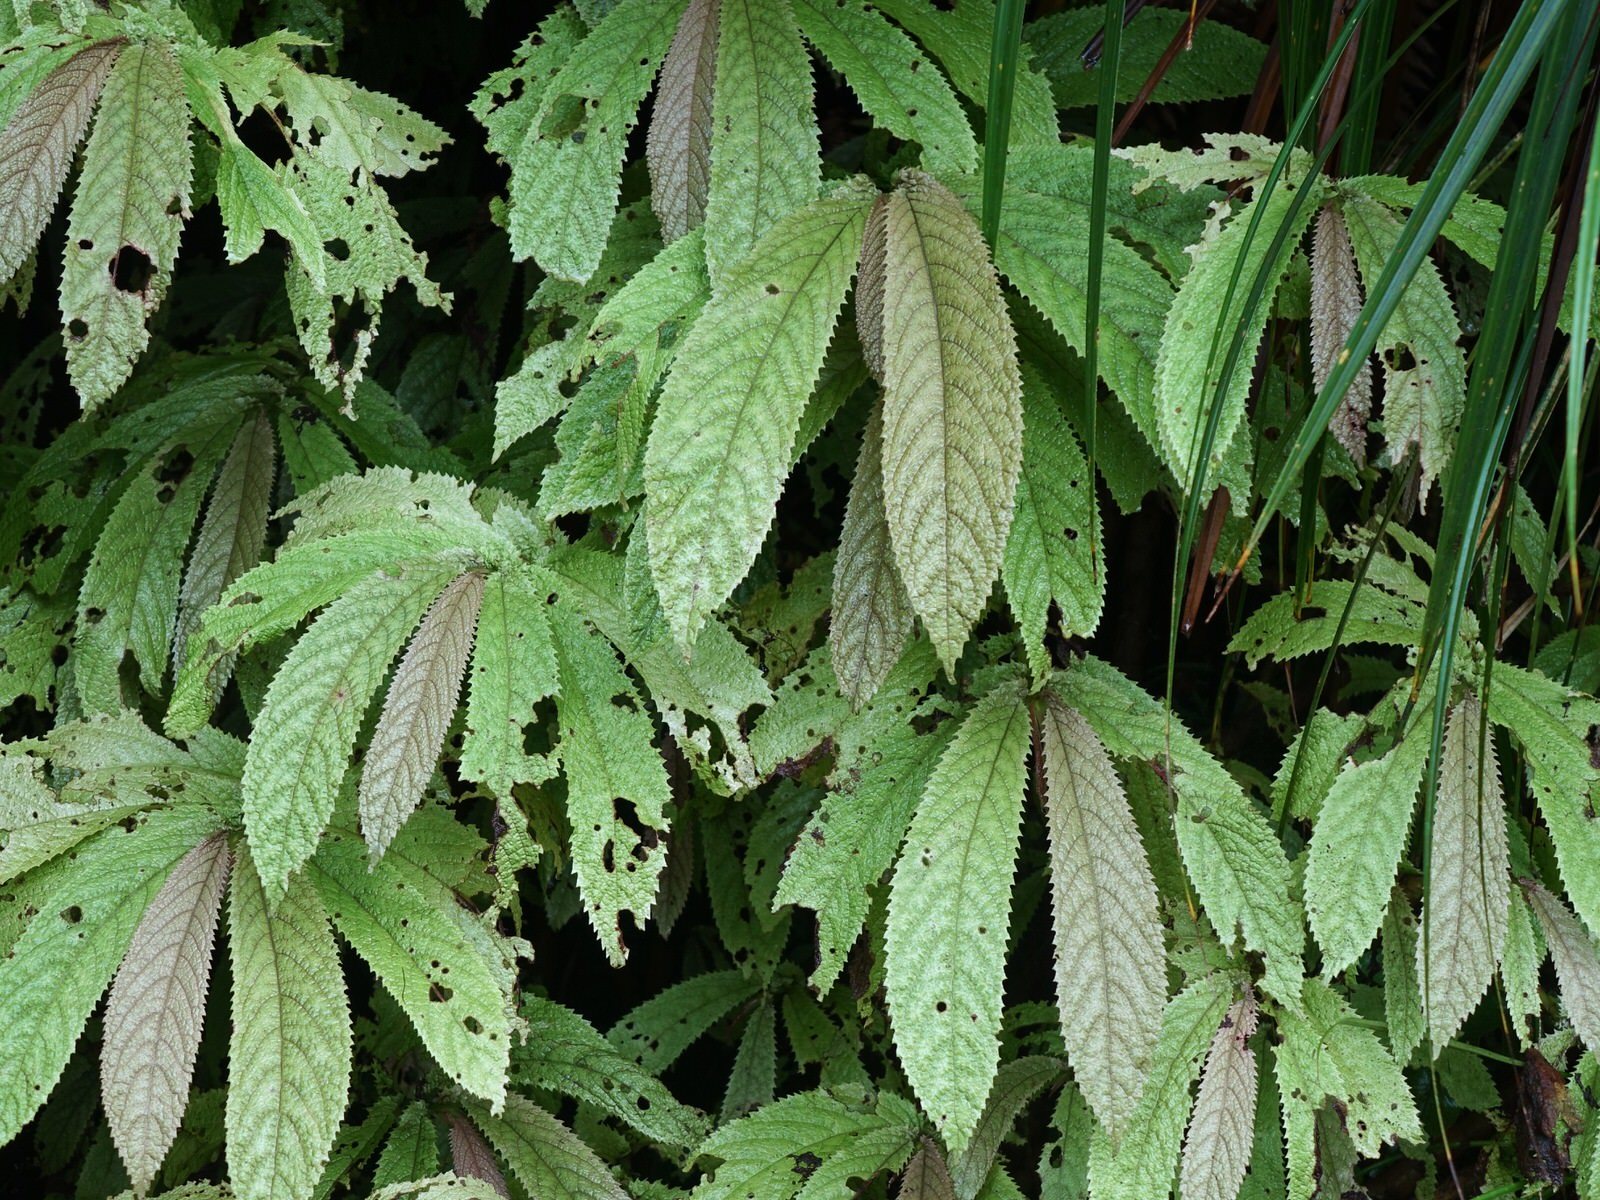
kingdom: Plantae
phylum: Tracheophyta
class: Magnoliopsida
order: Rosales
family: Urticaceae
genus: Elatostema
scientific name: Elatostema rugosum
